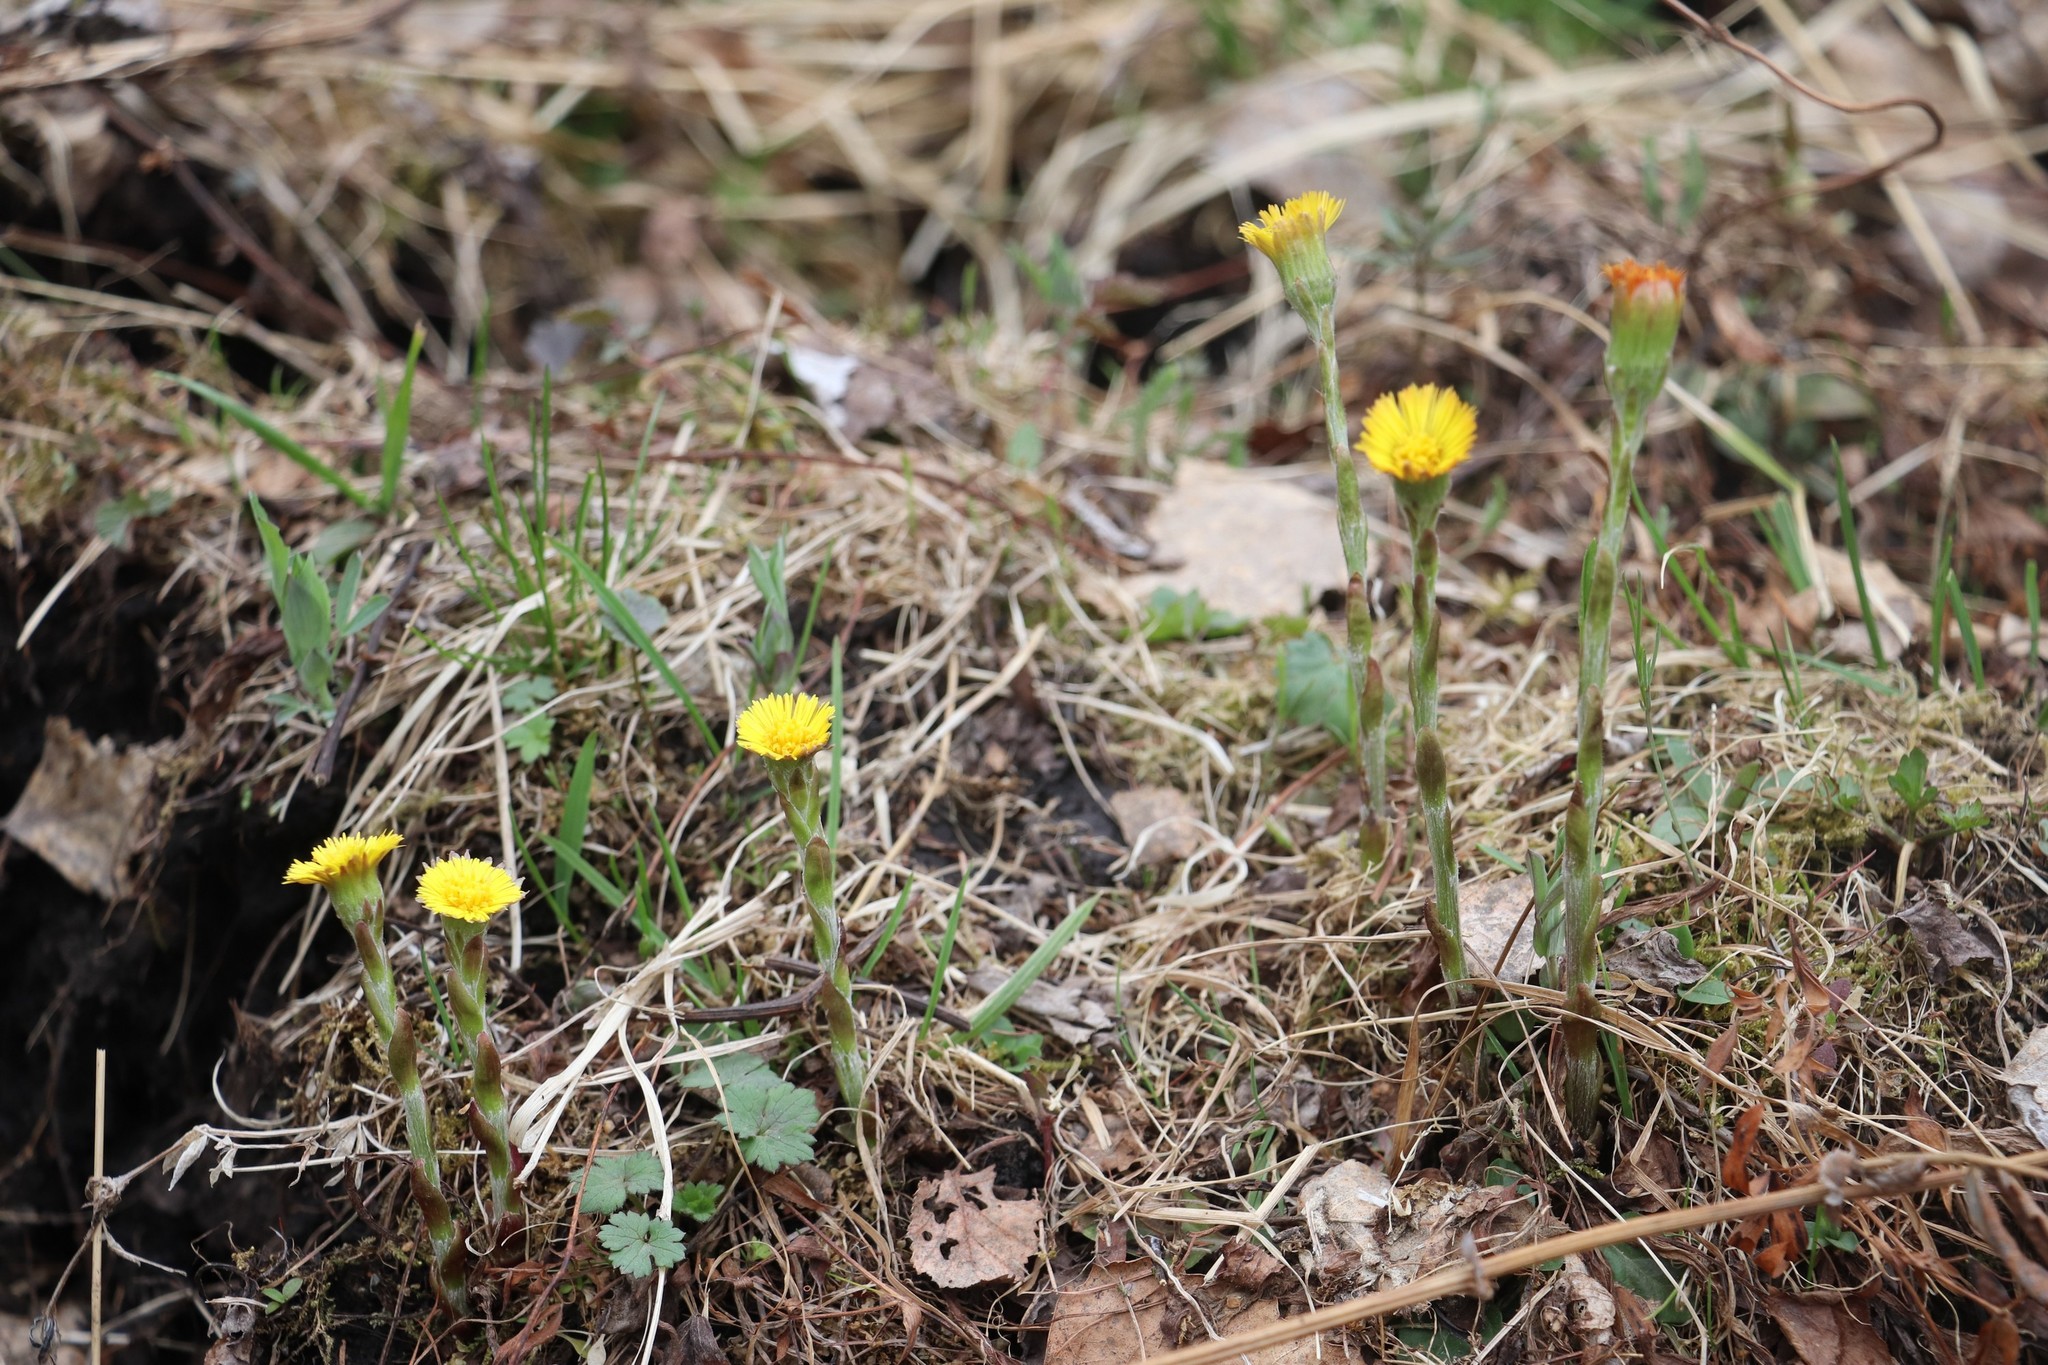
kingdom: Plantae
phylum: Tracheophyta
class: Magnoliopsida
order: Asterales
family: Asteraceae
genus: Tussilago
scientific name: Tussilago farfara
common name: Coltsfoot
